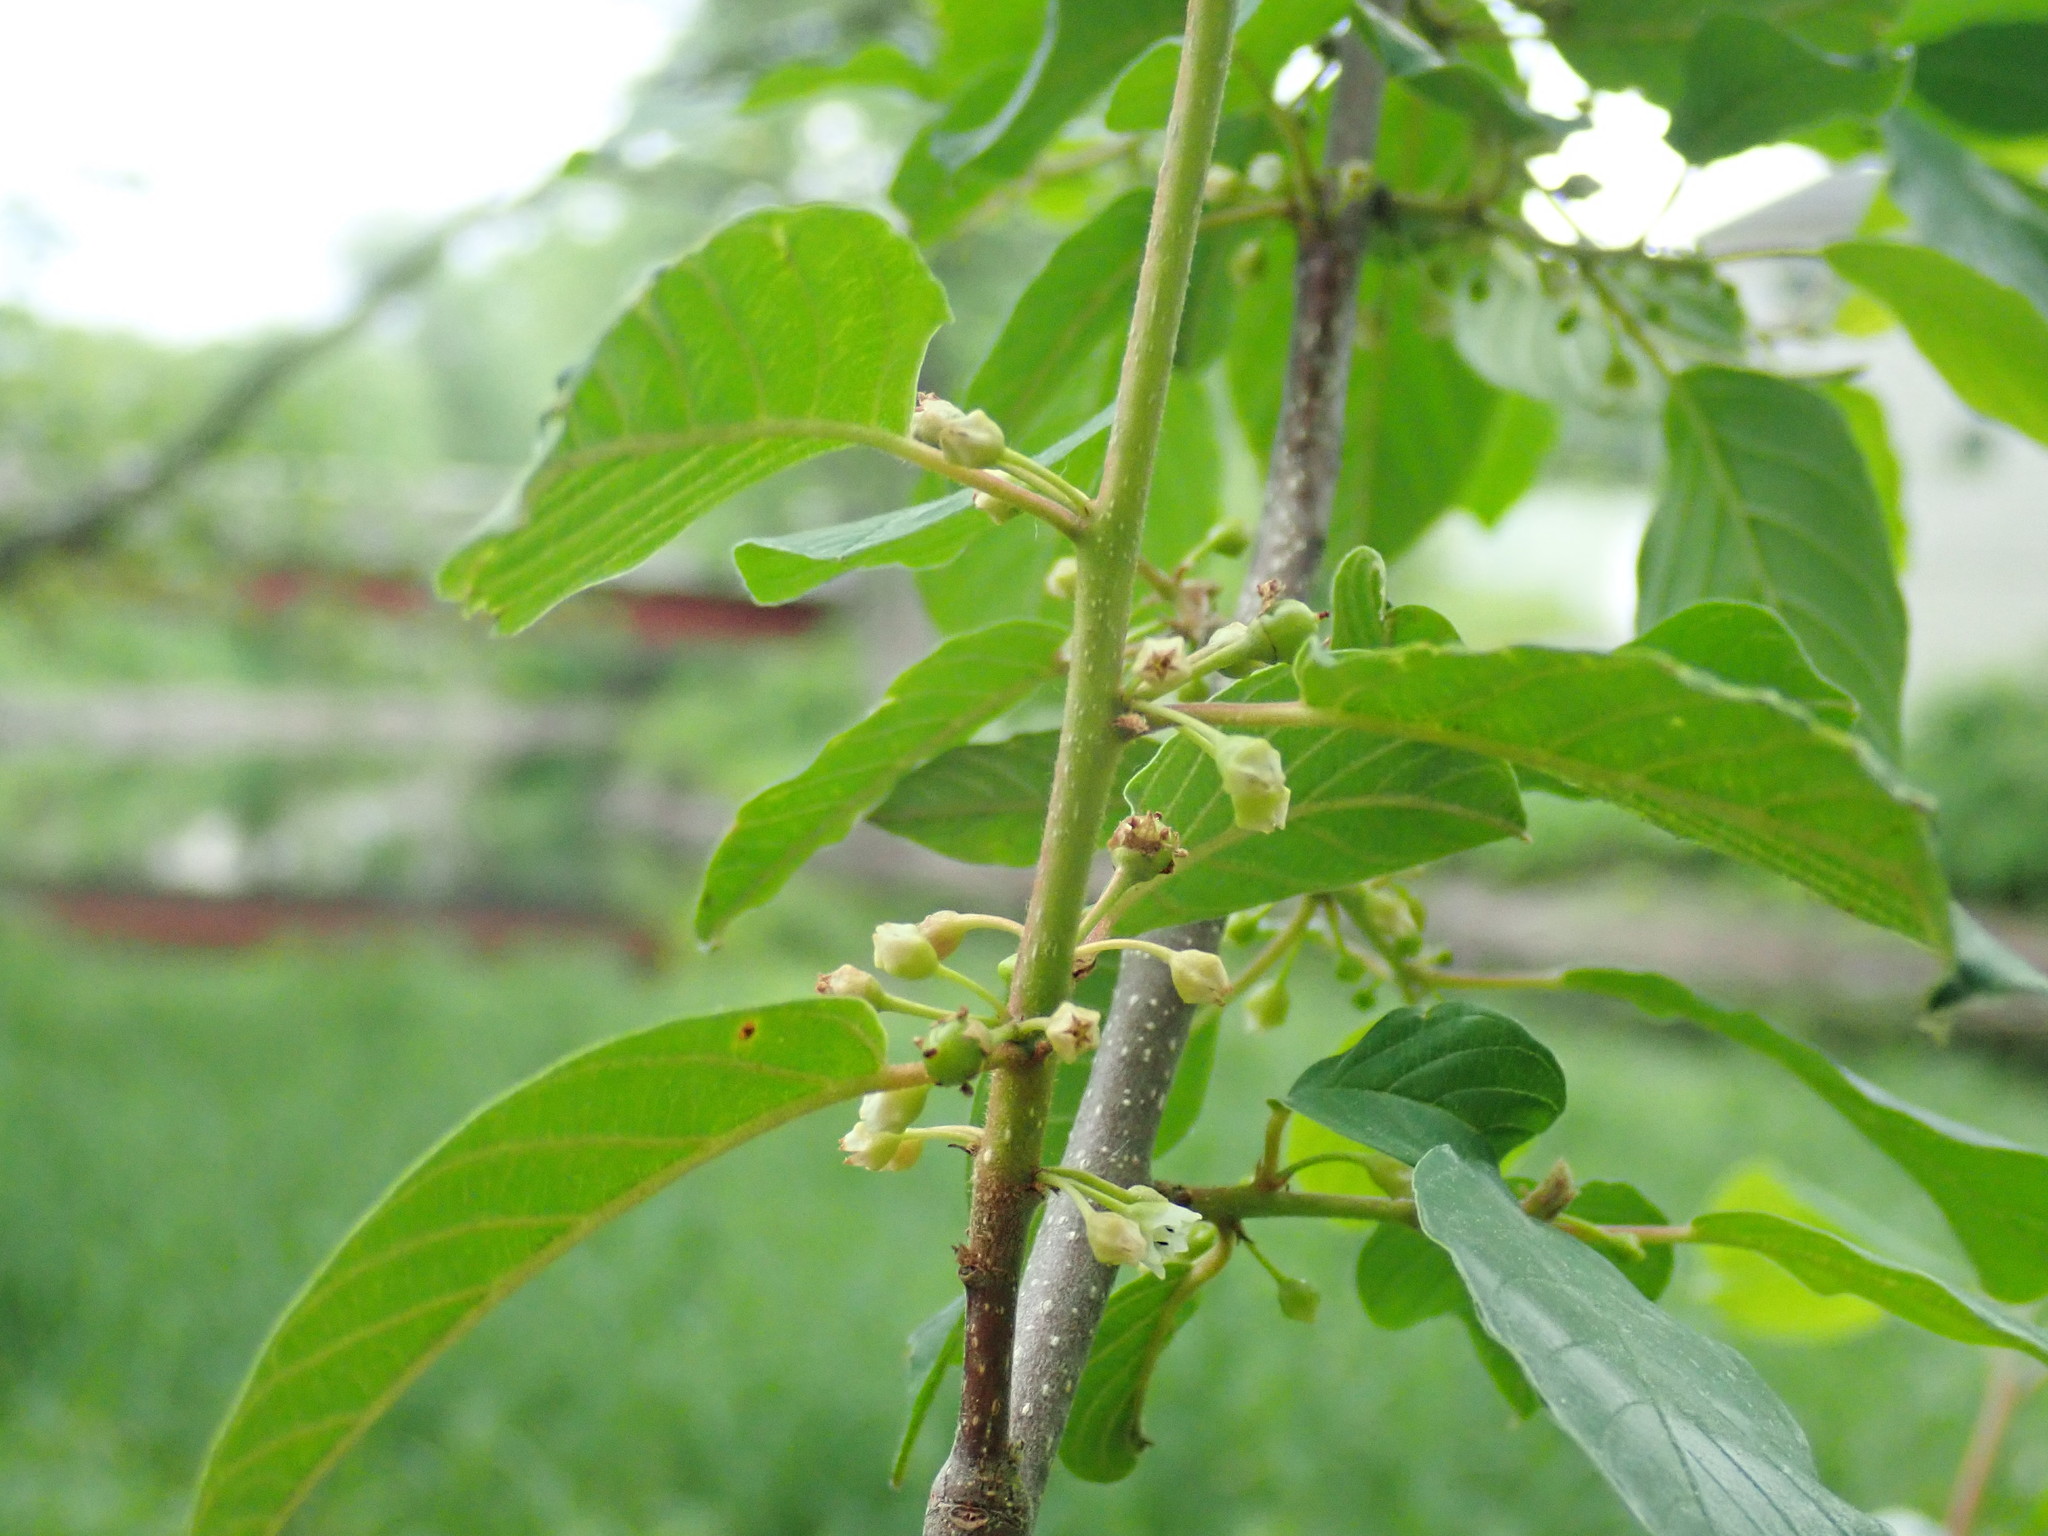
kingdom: Plantae
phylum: Tracheophyta
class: Magnoliopsida
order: Rosales
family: Rhamnaceae
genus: Frangula
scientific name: Frangula alnus
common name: Alder buckthorn
